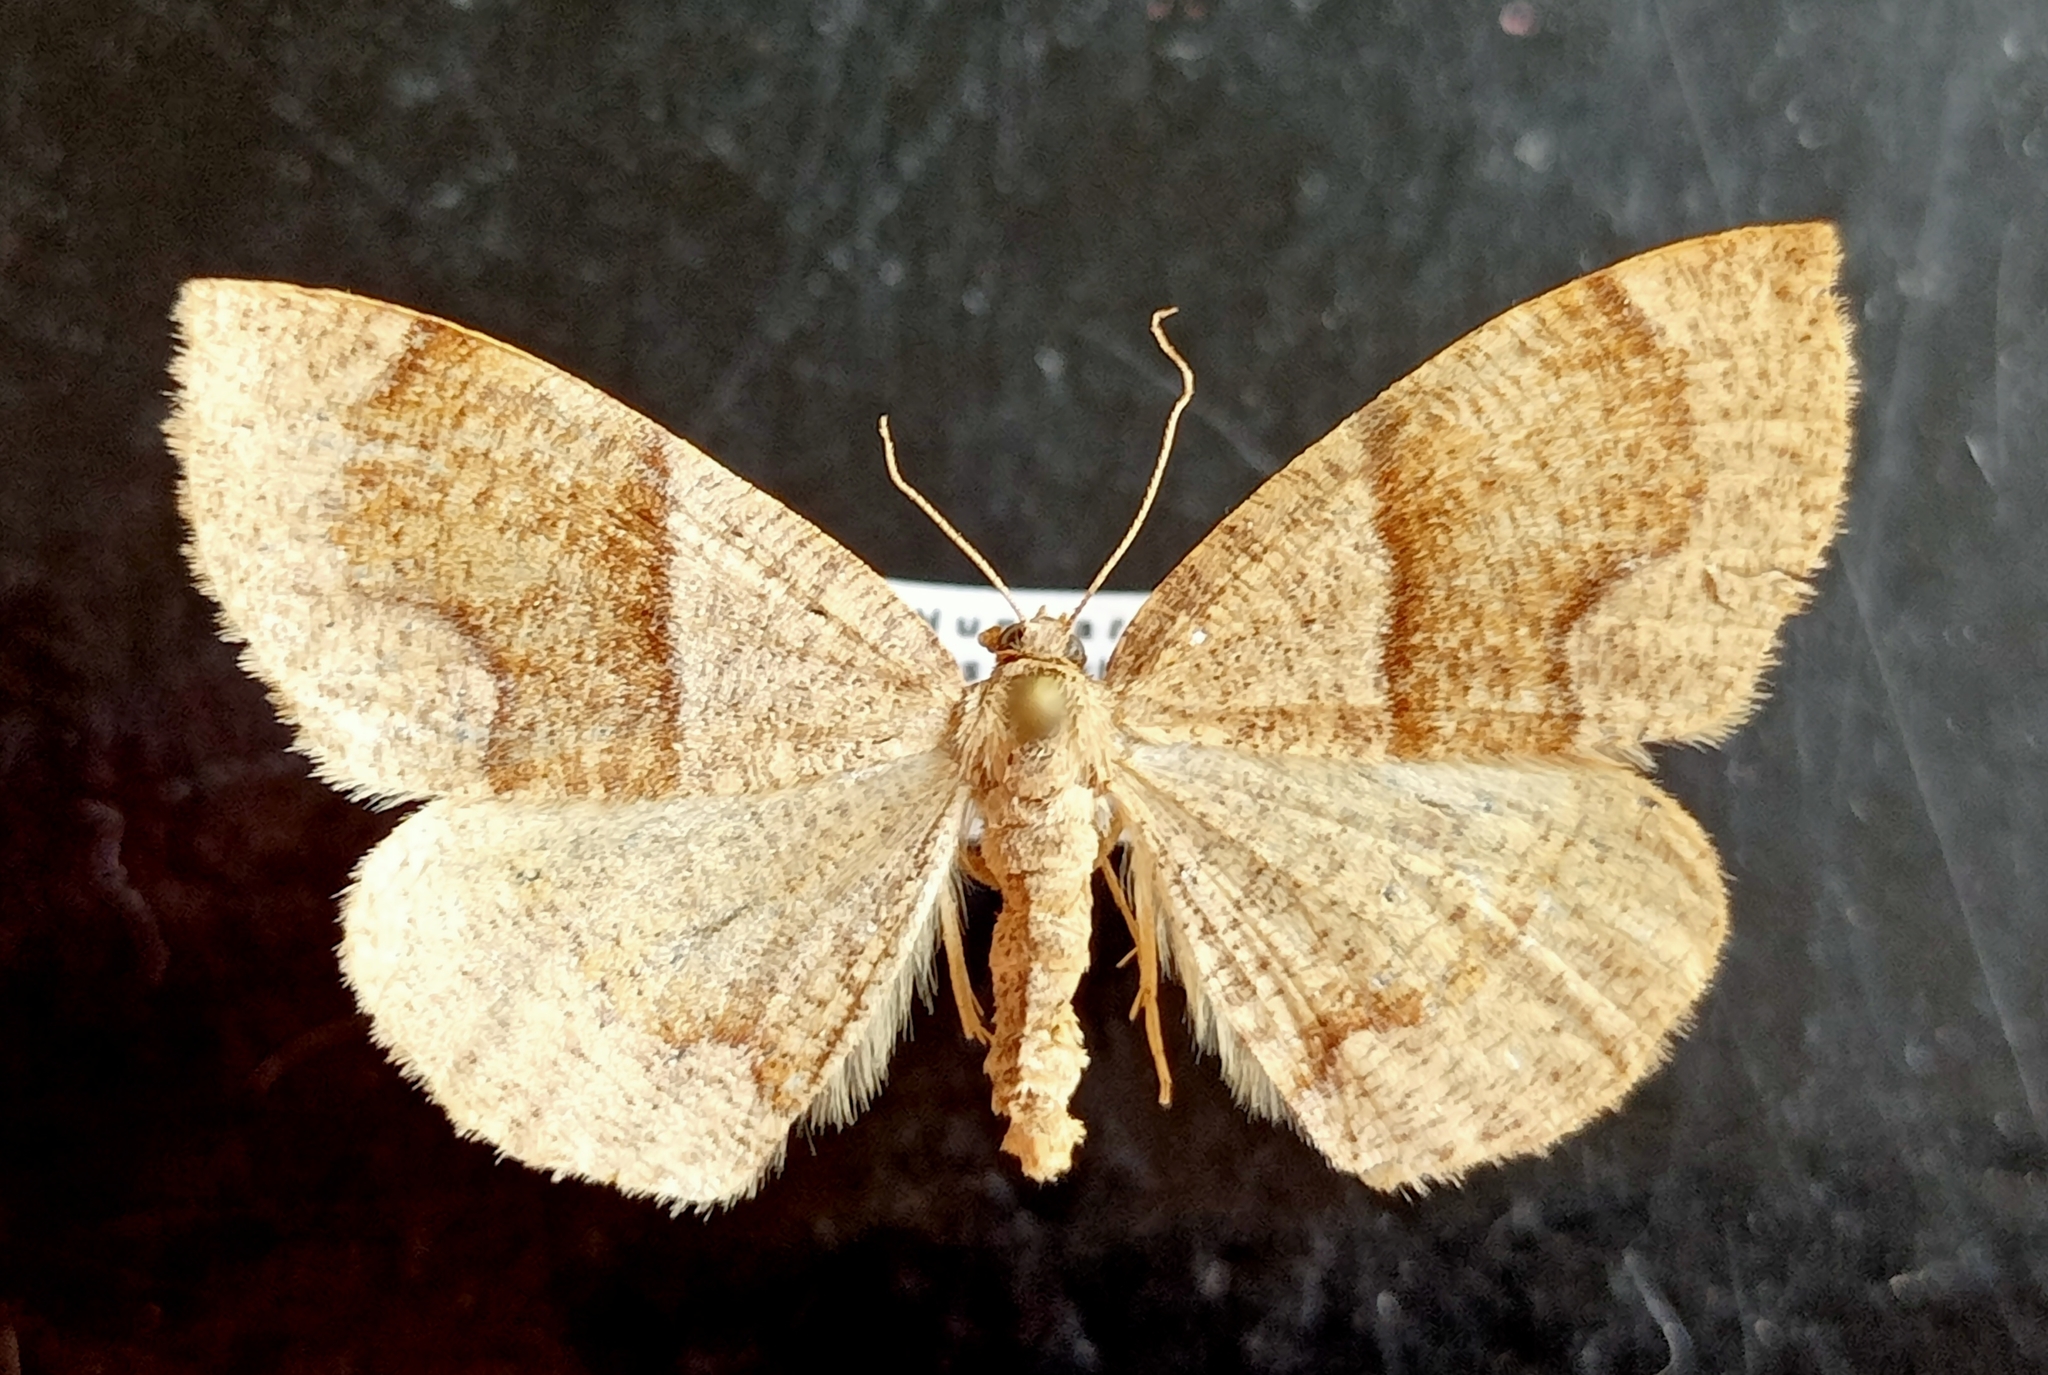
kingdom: Animalia
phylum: Arthropoda
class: Insecta
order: Lepidoptera
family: Geometridae
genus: Plagodis
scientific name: Plagodis pulveraria
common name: Barred umber
